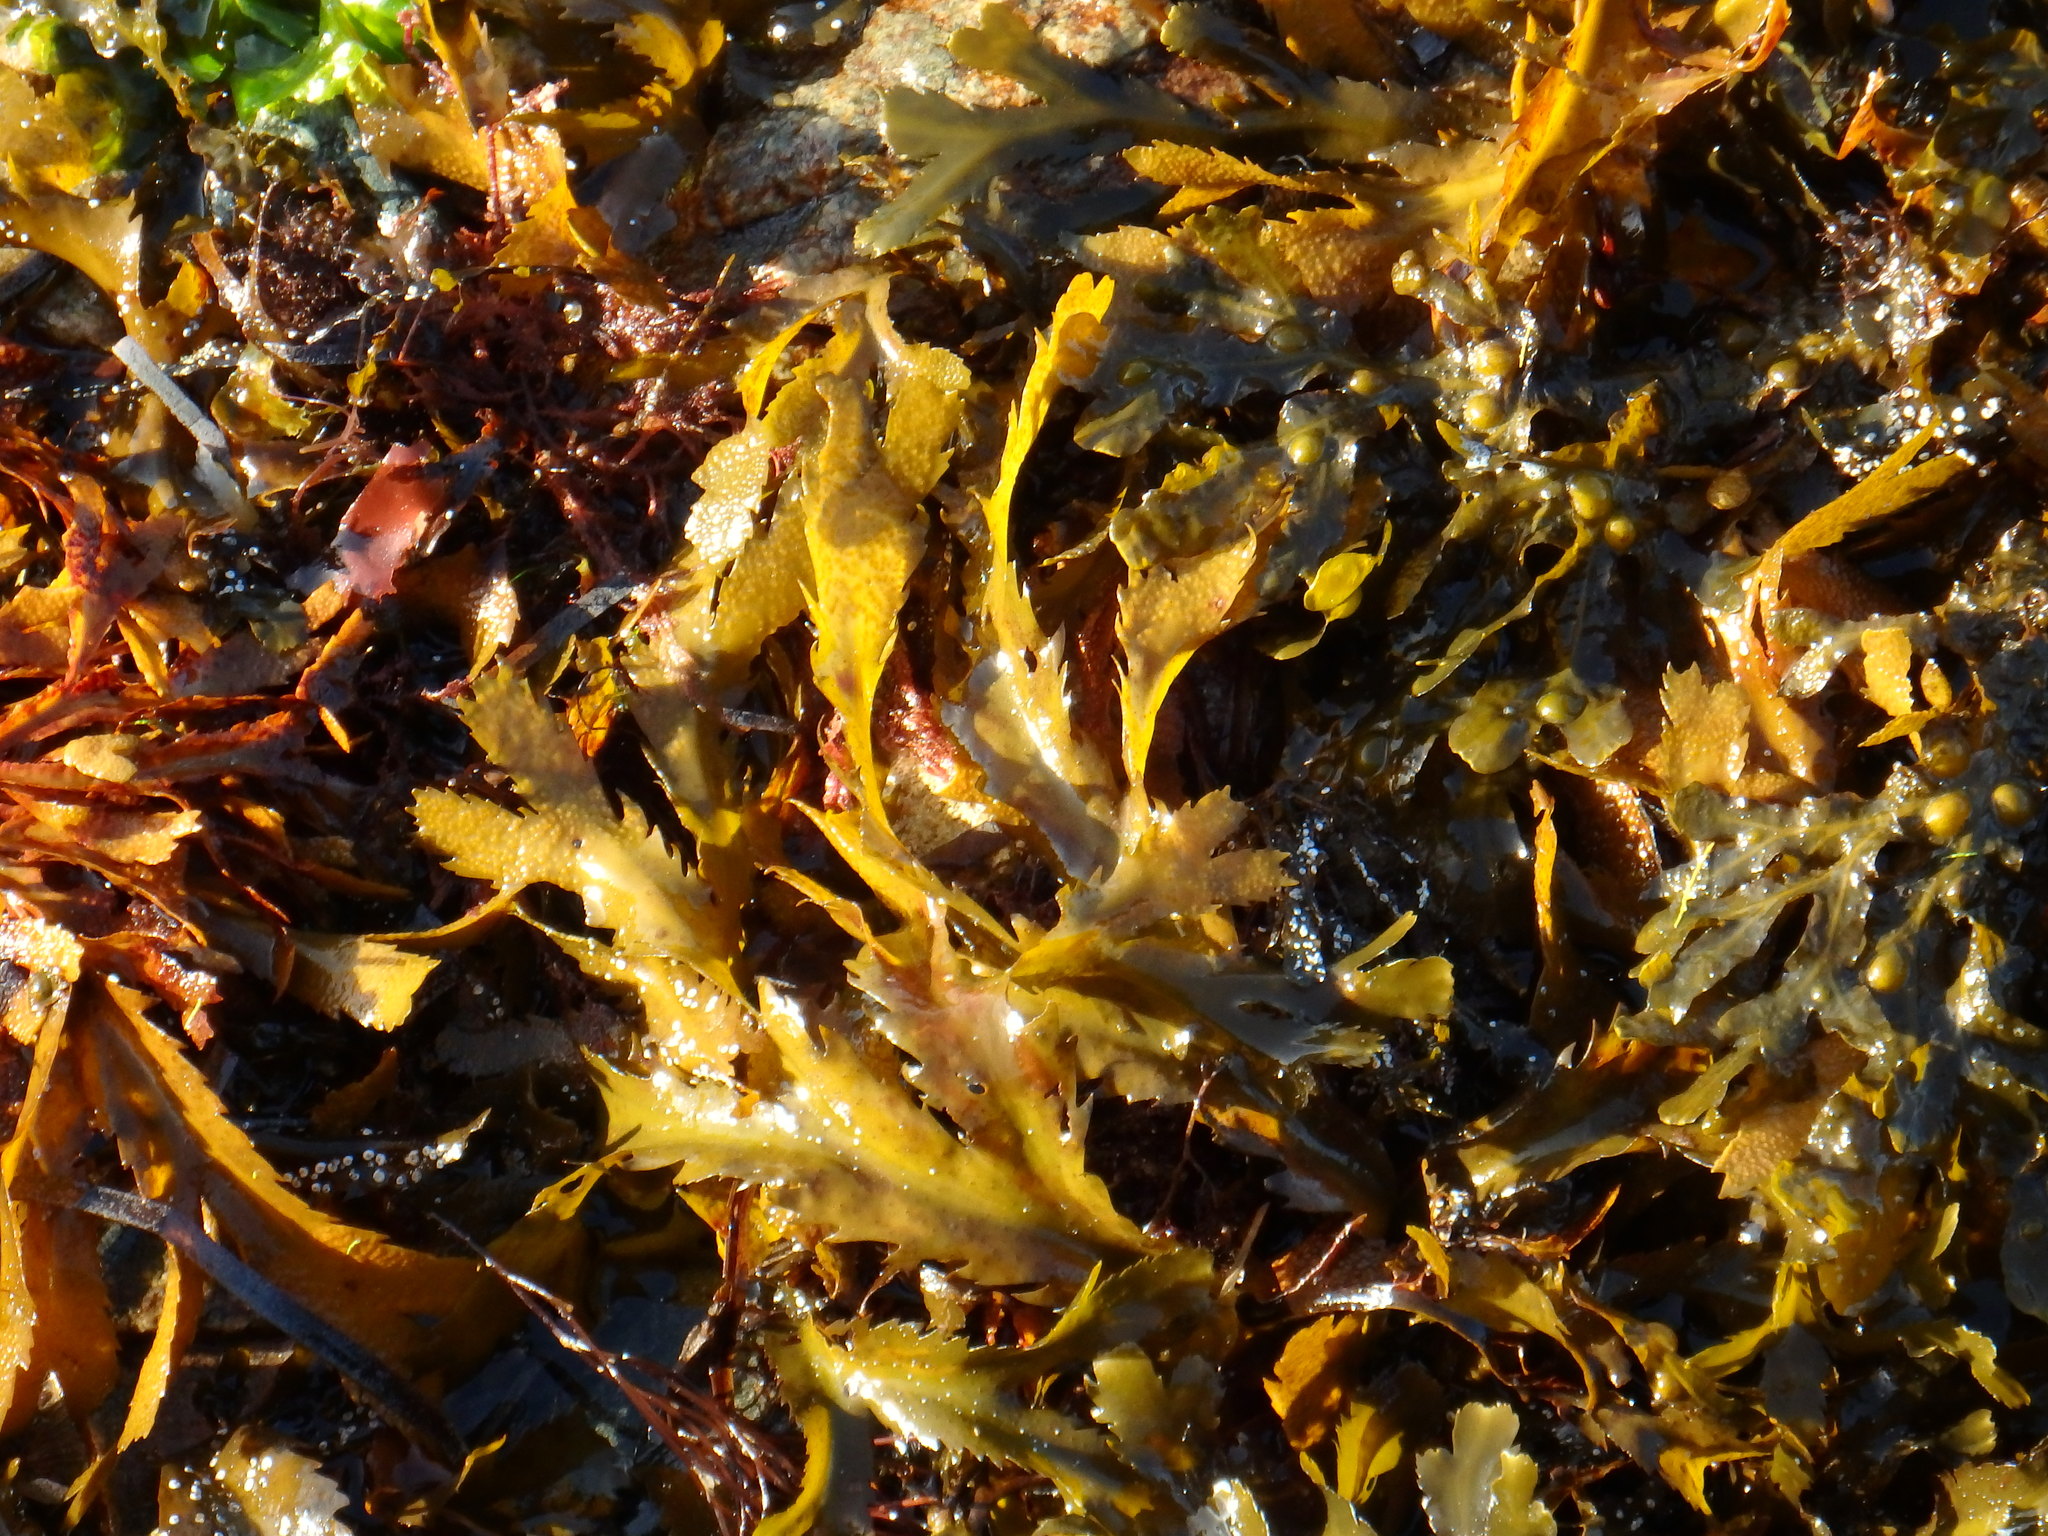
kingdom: Chromista
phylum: Ochrophyta
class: Phaeophyceae
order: Fucales
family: Fucaceae
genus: Fucus
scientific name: Fucus serratus
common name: Toothed wrack
